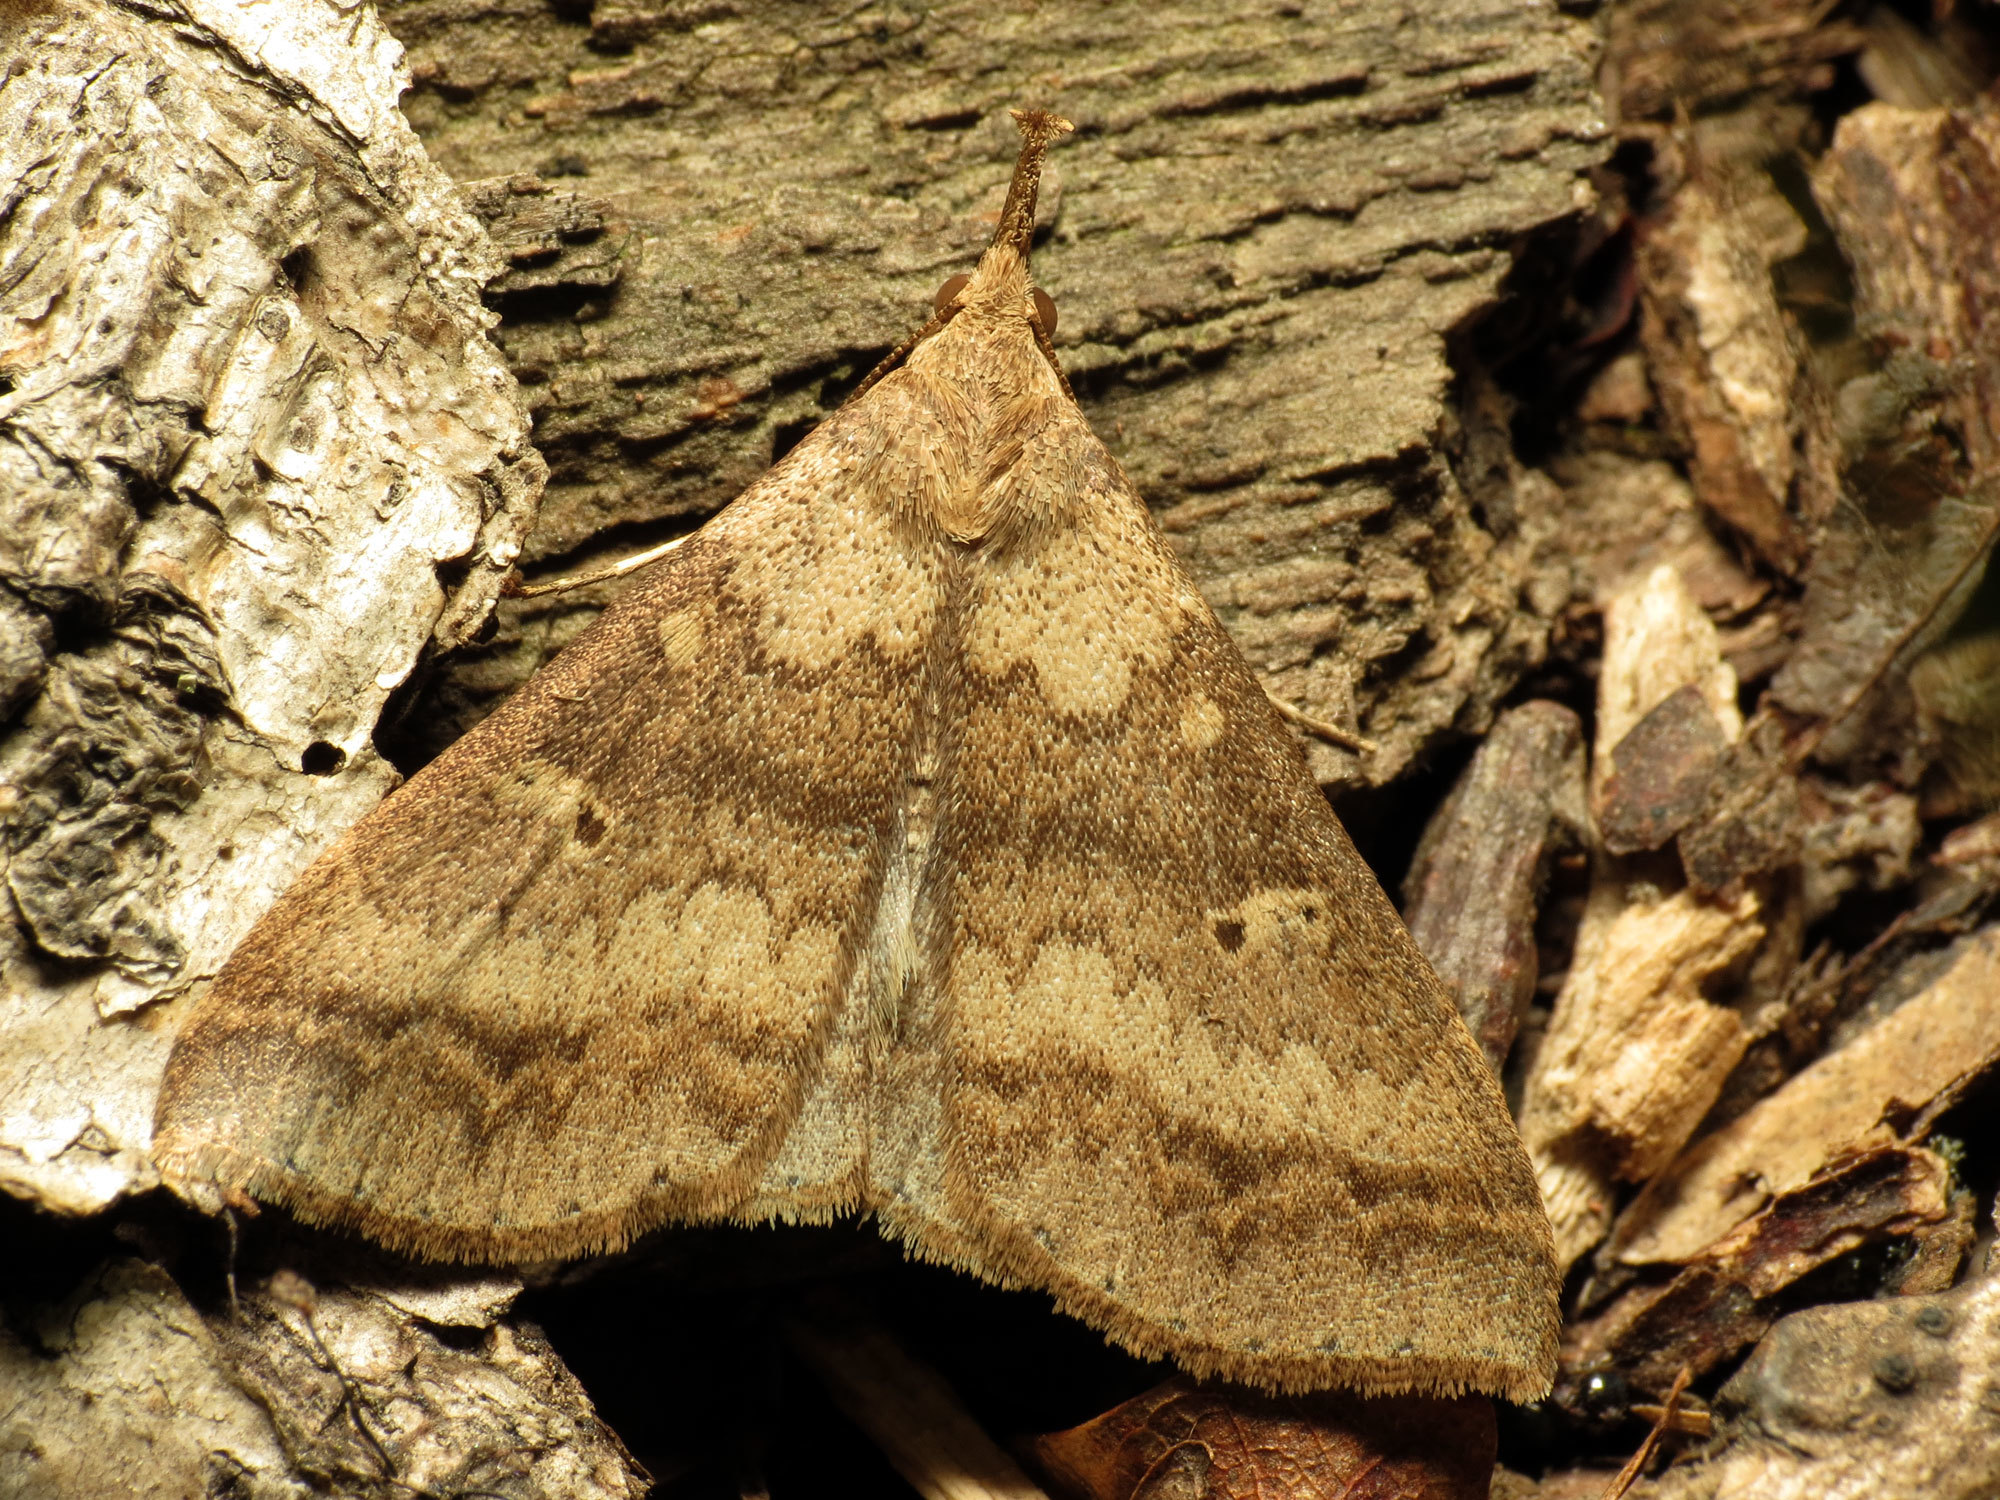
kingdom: Animalia
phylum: Arthropoda
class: Insecta
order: Lepidoptera
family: Erebidae
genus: Renia
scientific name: Renia discoloralis
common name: Discolored renia moth
